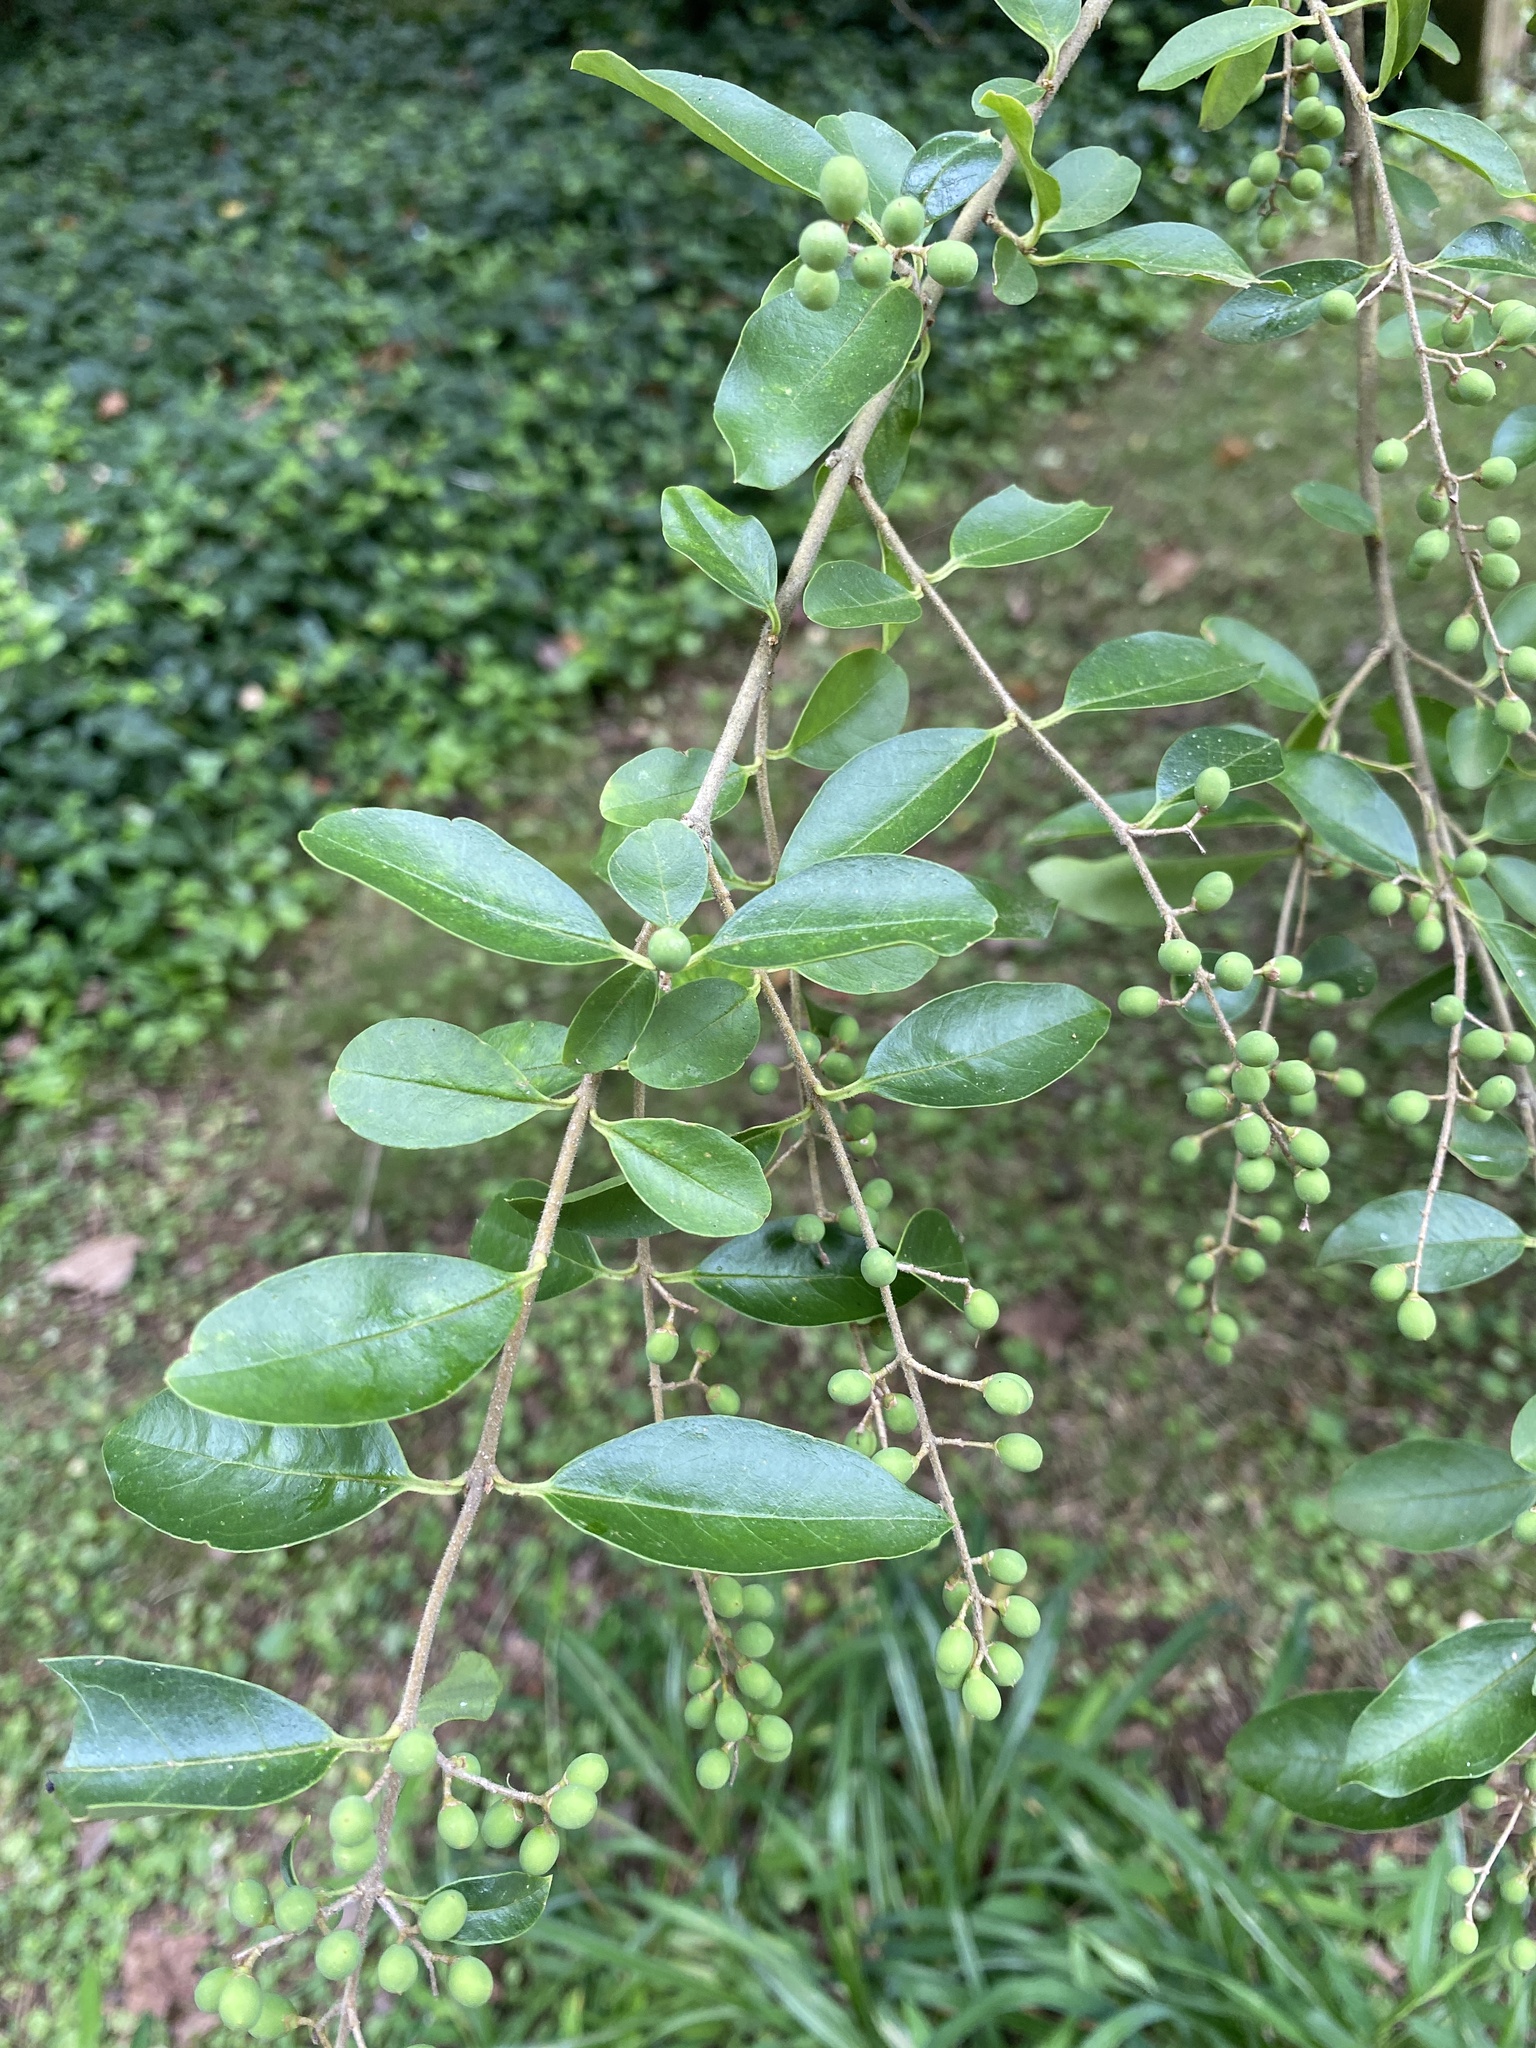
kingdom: Plantae
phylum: Tracheophyta
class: Magnoliopsida
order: Lamiales
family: Oleaceae
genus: Ligustrum
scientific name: Ligustrum sinense
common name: Chinese privet
